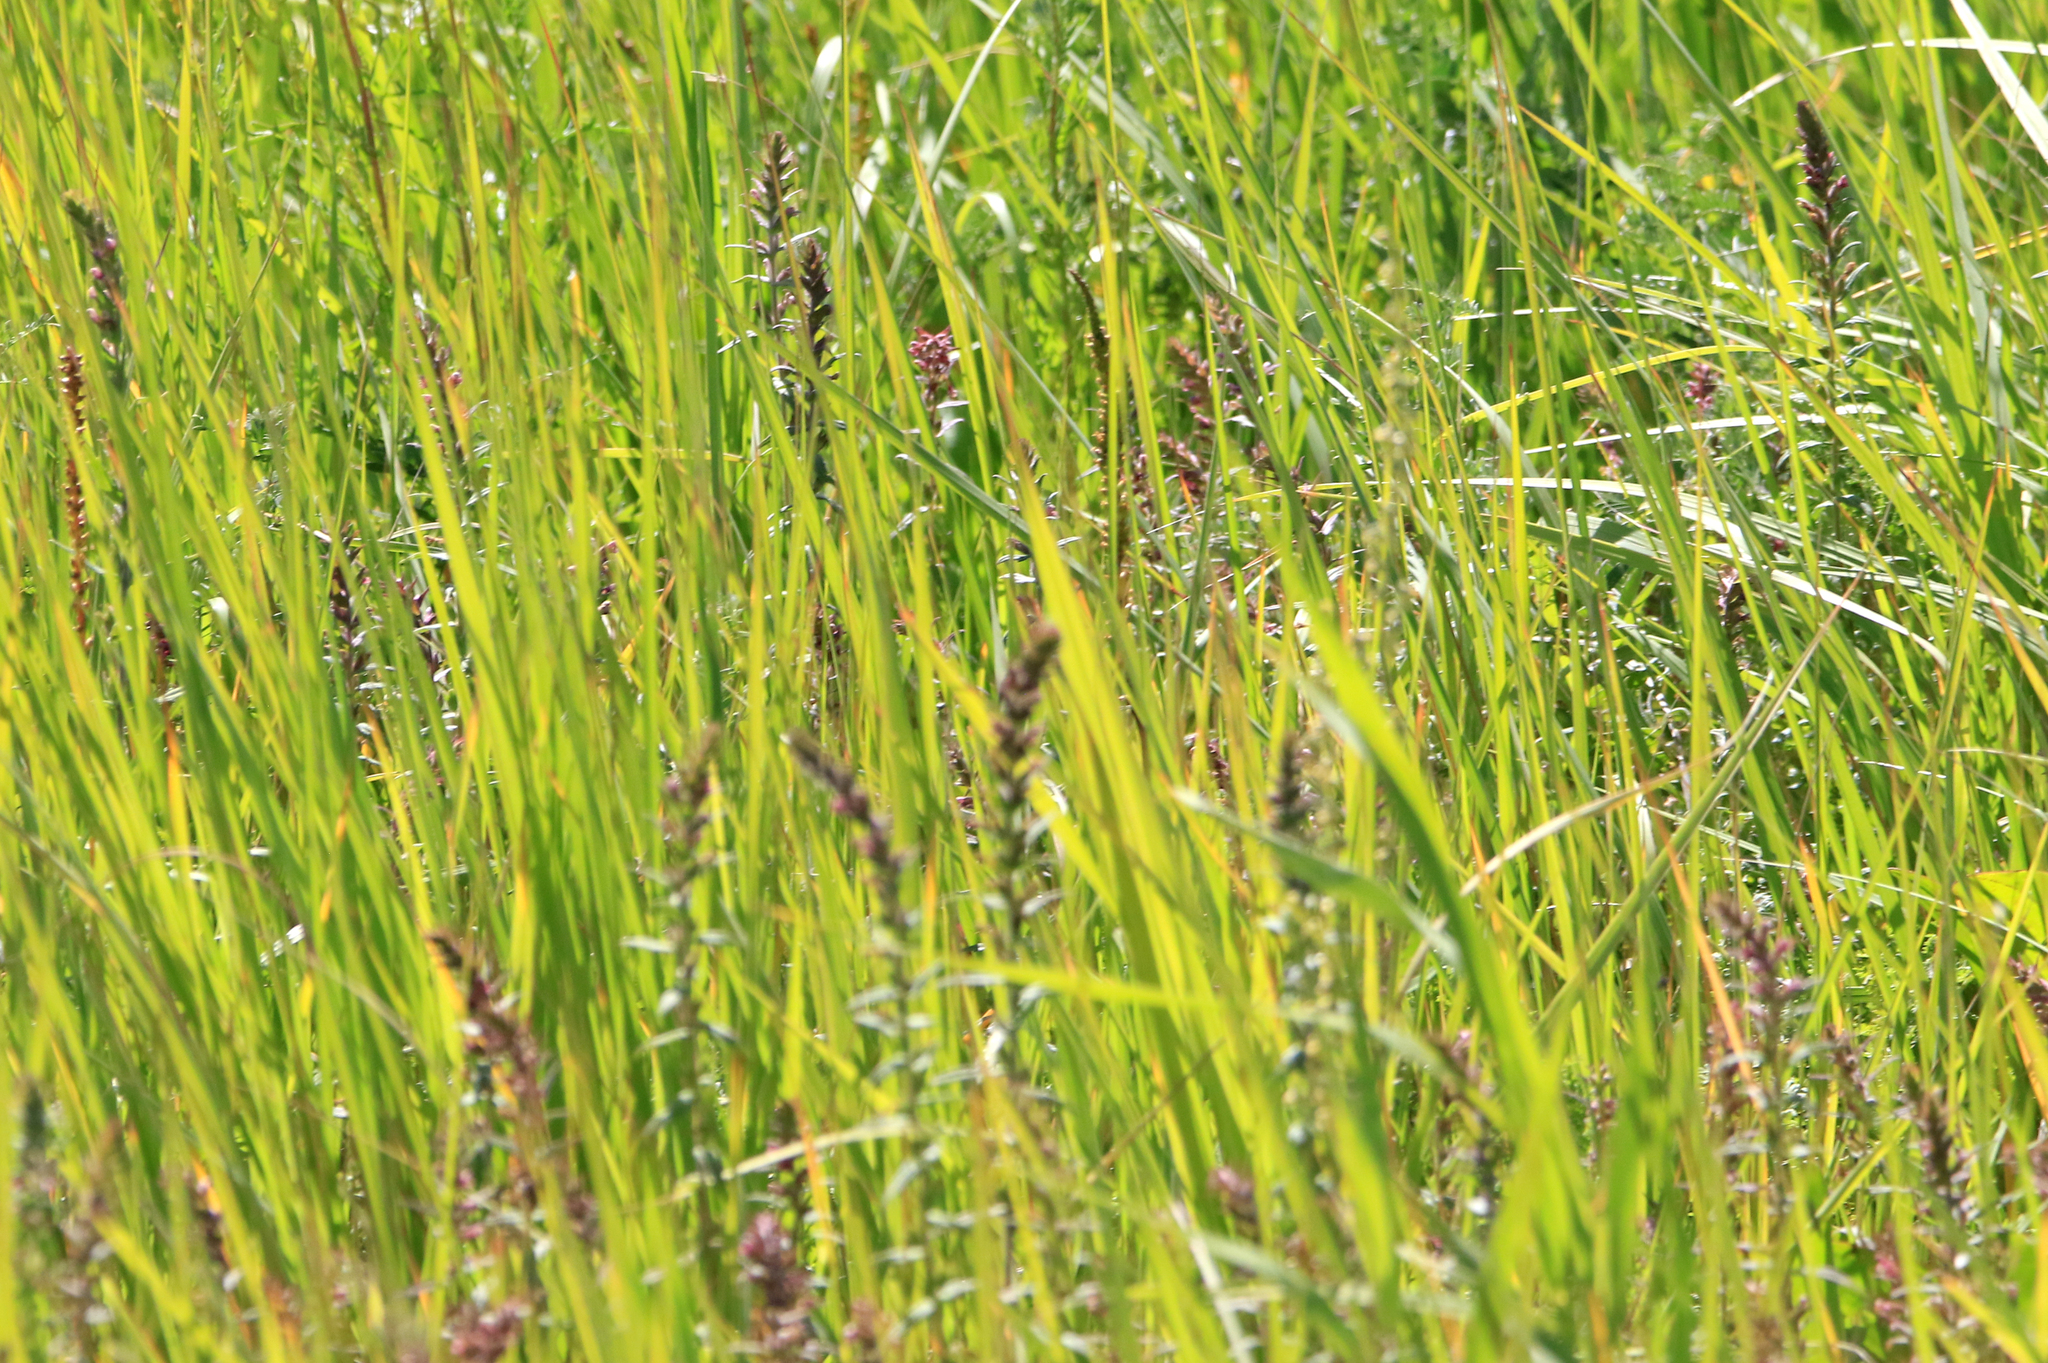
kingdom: Plantae
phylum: Tracheophyta
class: Magnoliopsida
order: Lamiales
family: Orobanchaceae
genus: Odontites
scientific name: Odontites vulgaris
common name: Broomrape
